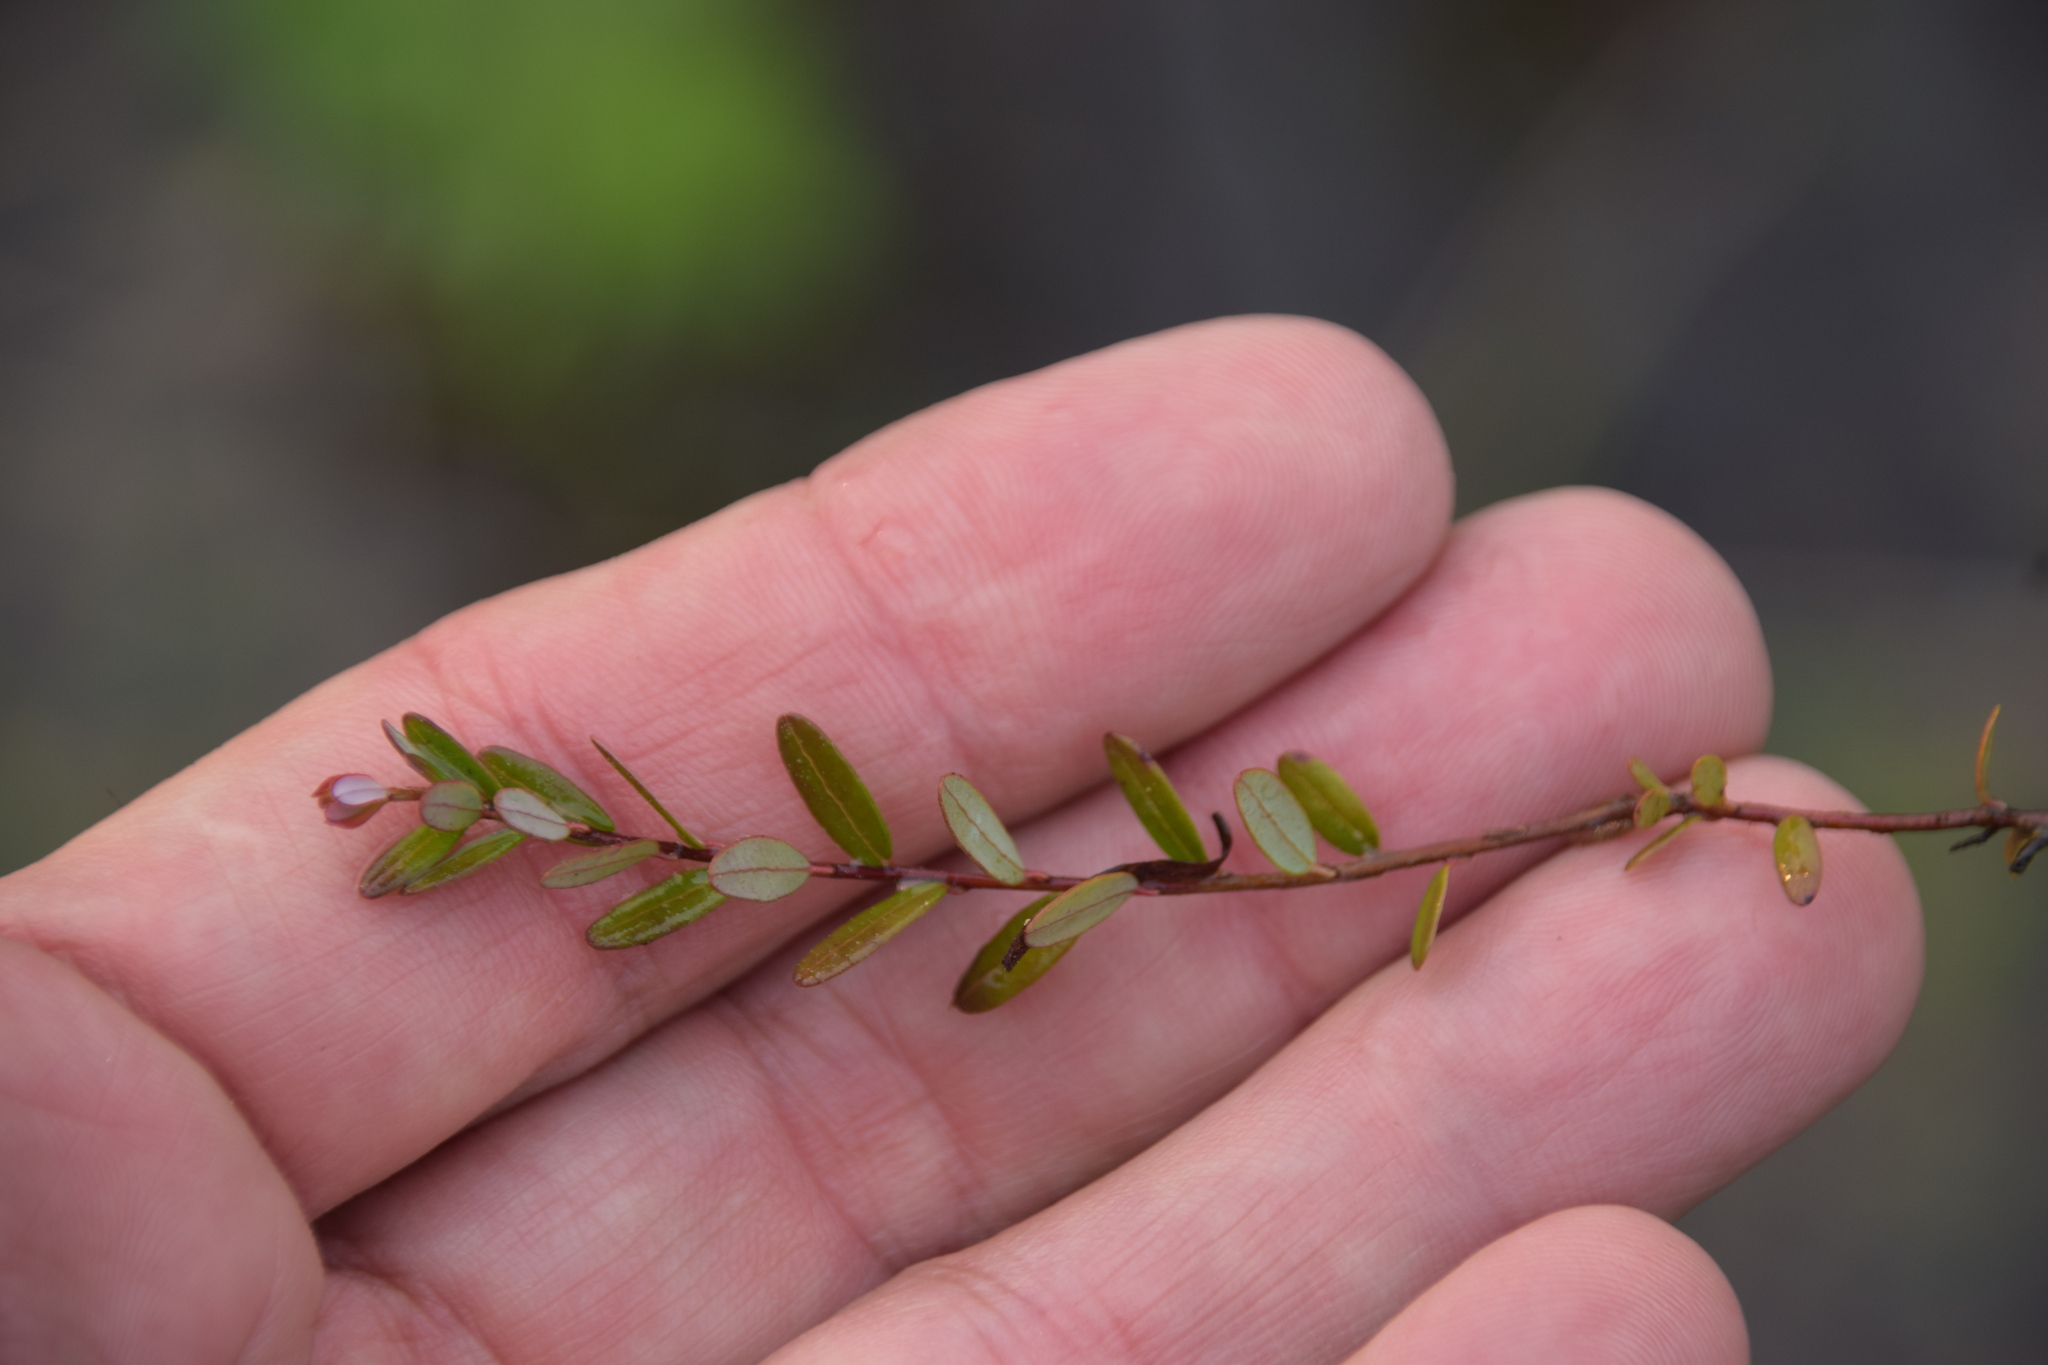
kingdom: Plantae
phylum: Tracheophyta
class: Magnoliopsida
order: Ericales
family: Ericaceae
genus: Vaccinium
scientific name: Vaccinium macrocarpon
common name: American cranberry
